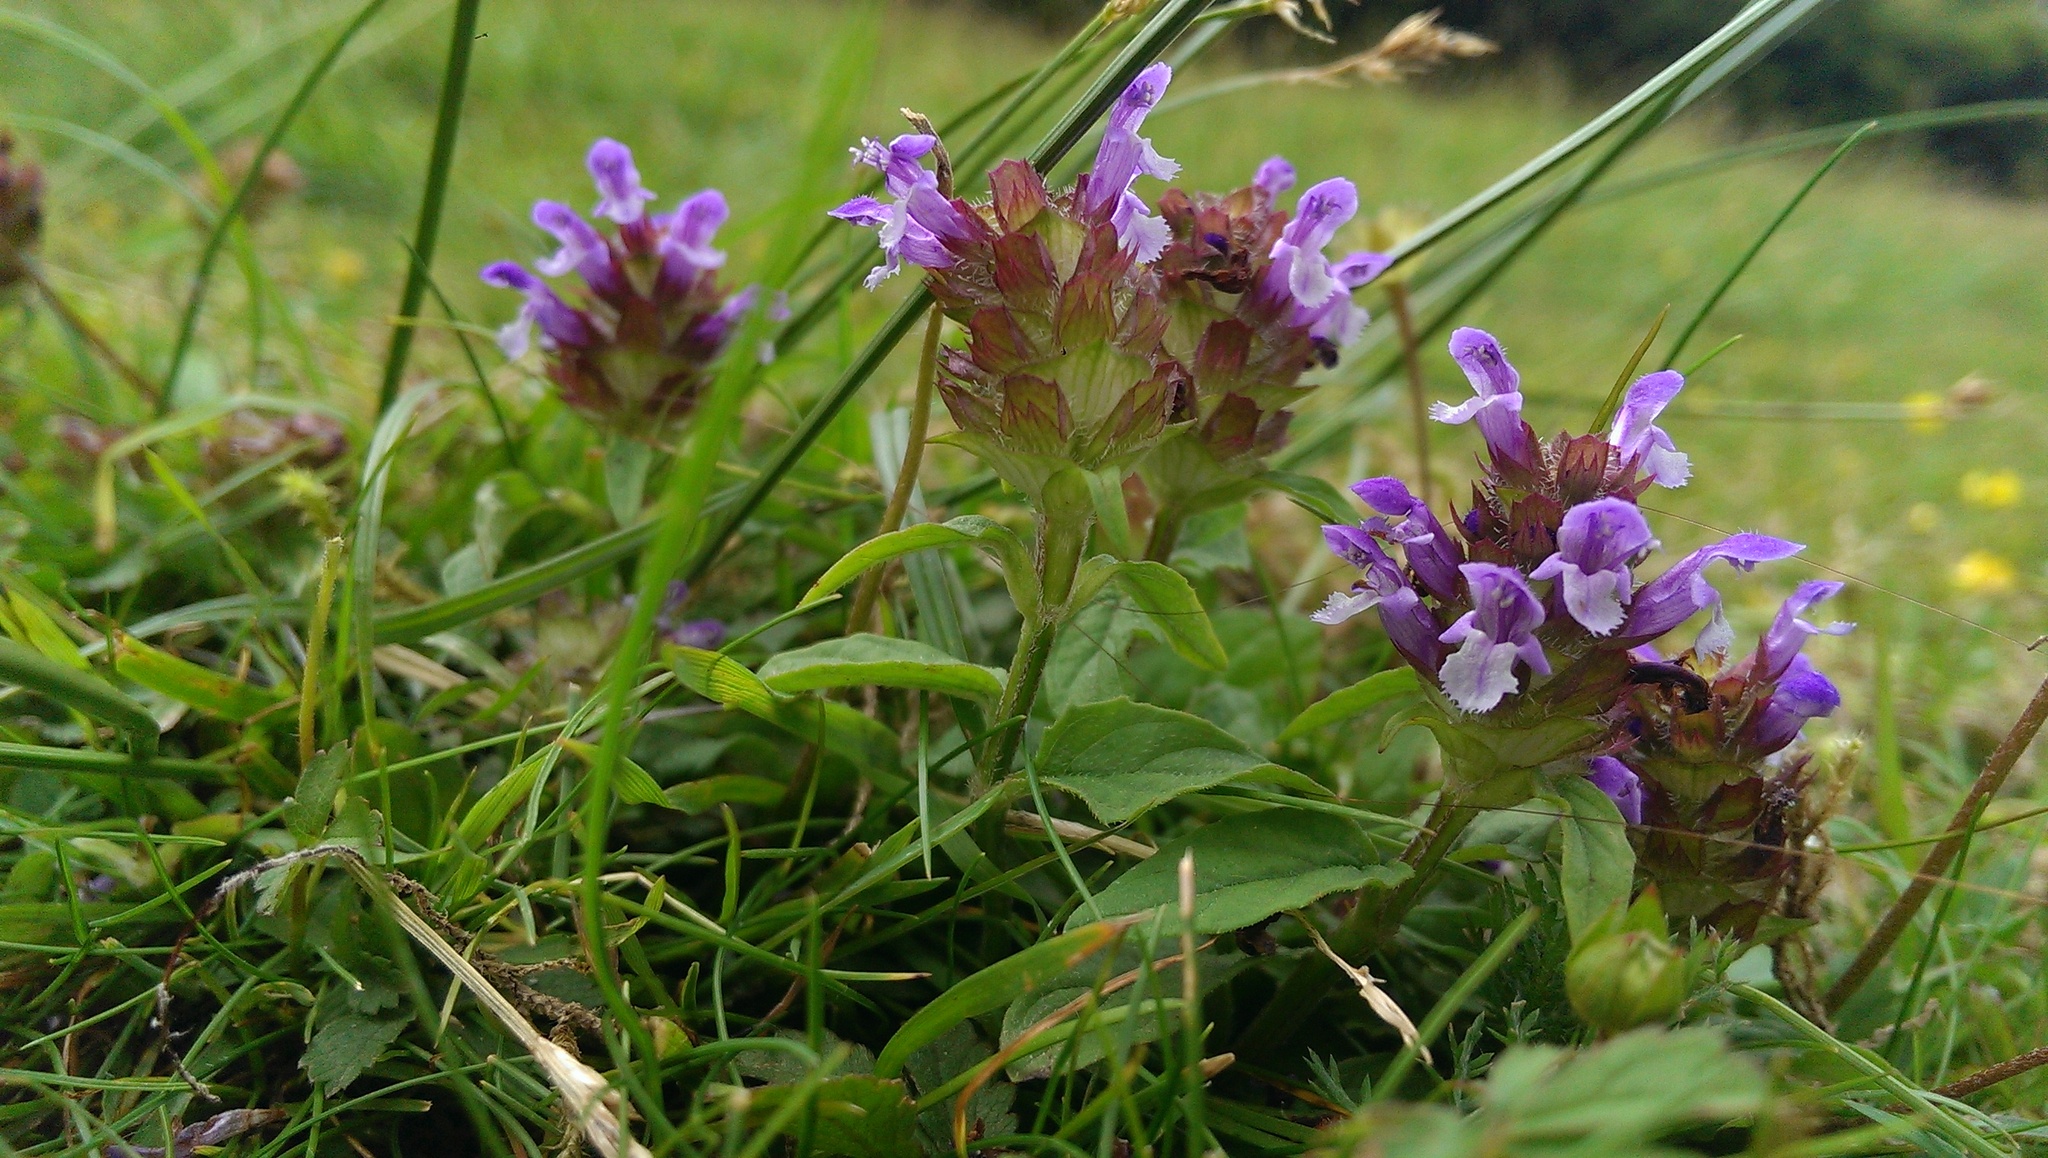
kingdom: Plantae
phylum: Tracheophyta
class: Magnoliopsida
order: Lamiales
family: Lamiaceae
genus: Prunella
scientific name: Prunella vulgaris
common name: Heal-all
